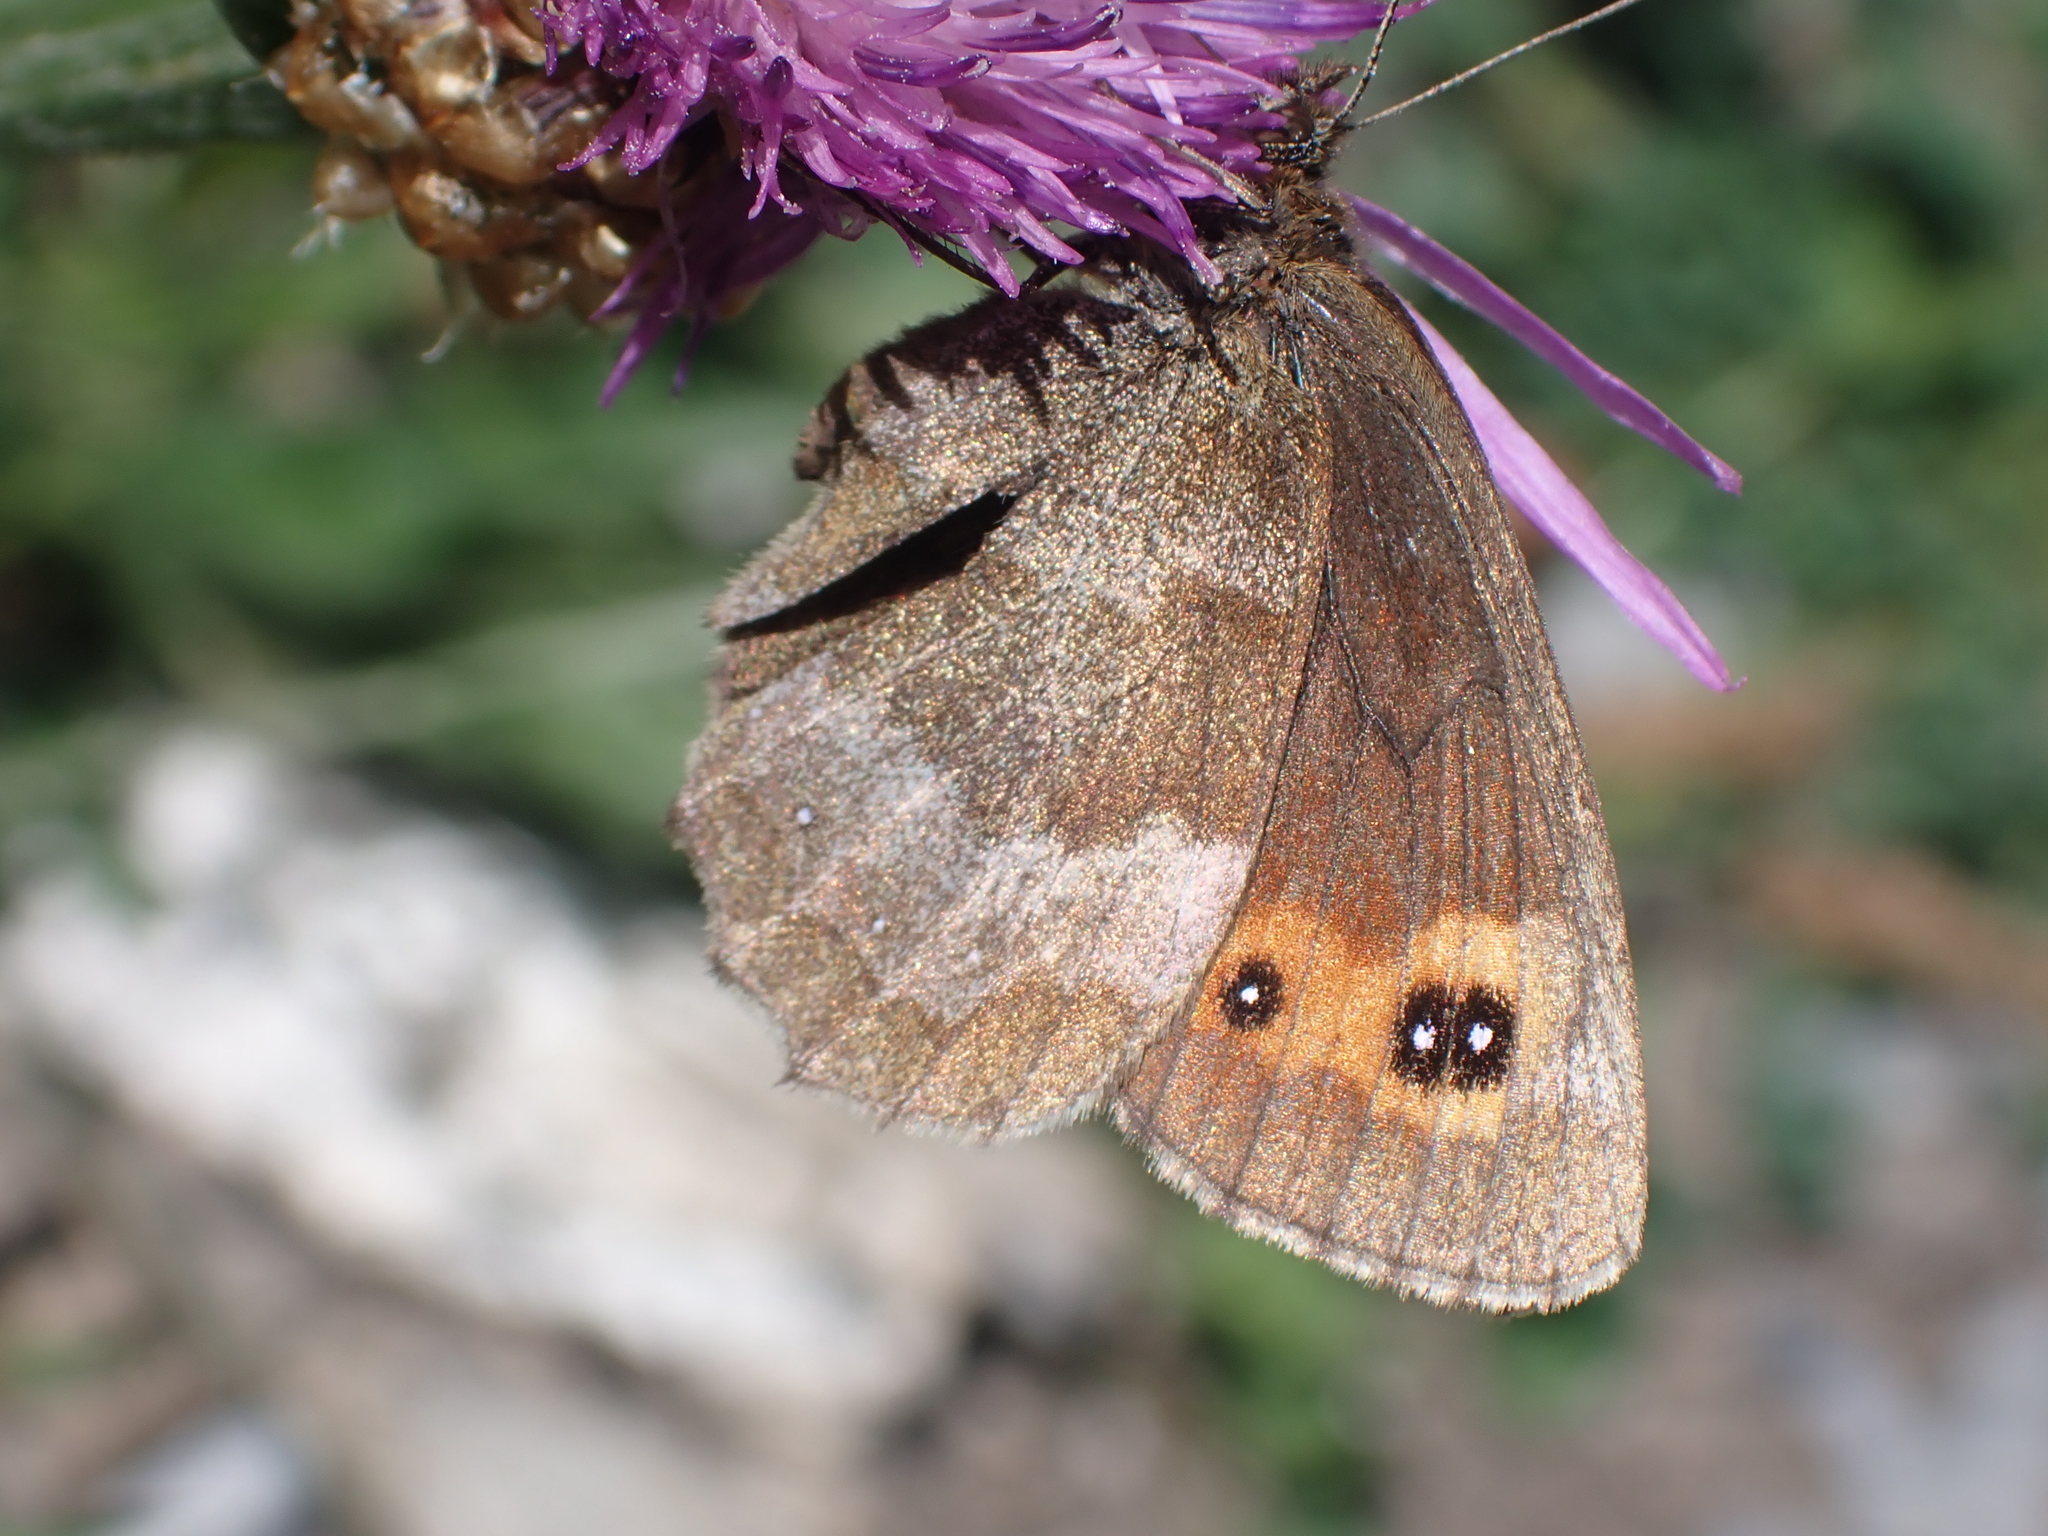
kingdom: Animalia
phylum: Arthropoda
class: Insecta
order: Lepidoptera
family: Nymphalidae
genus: Erebia
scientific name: Erebia aethiops
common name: Scotch argus
